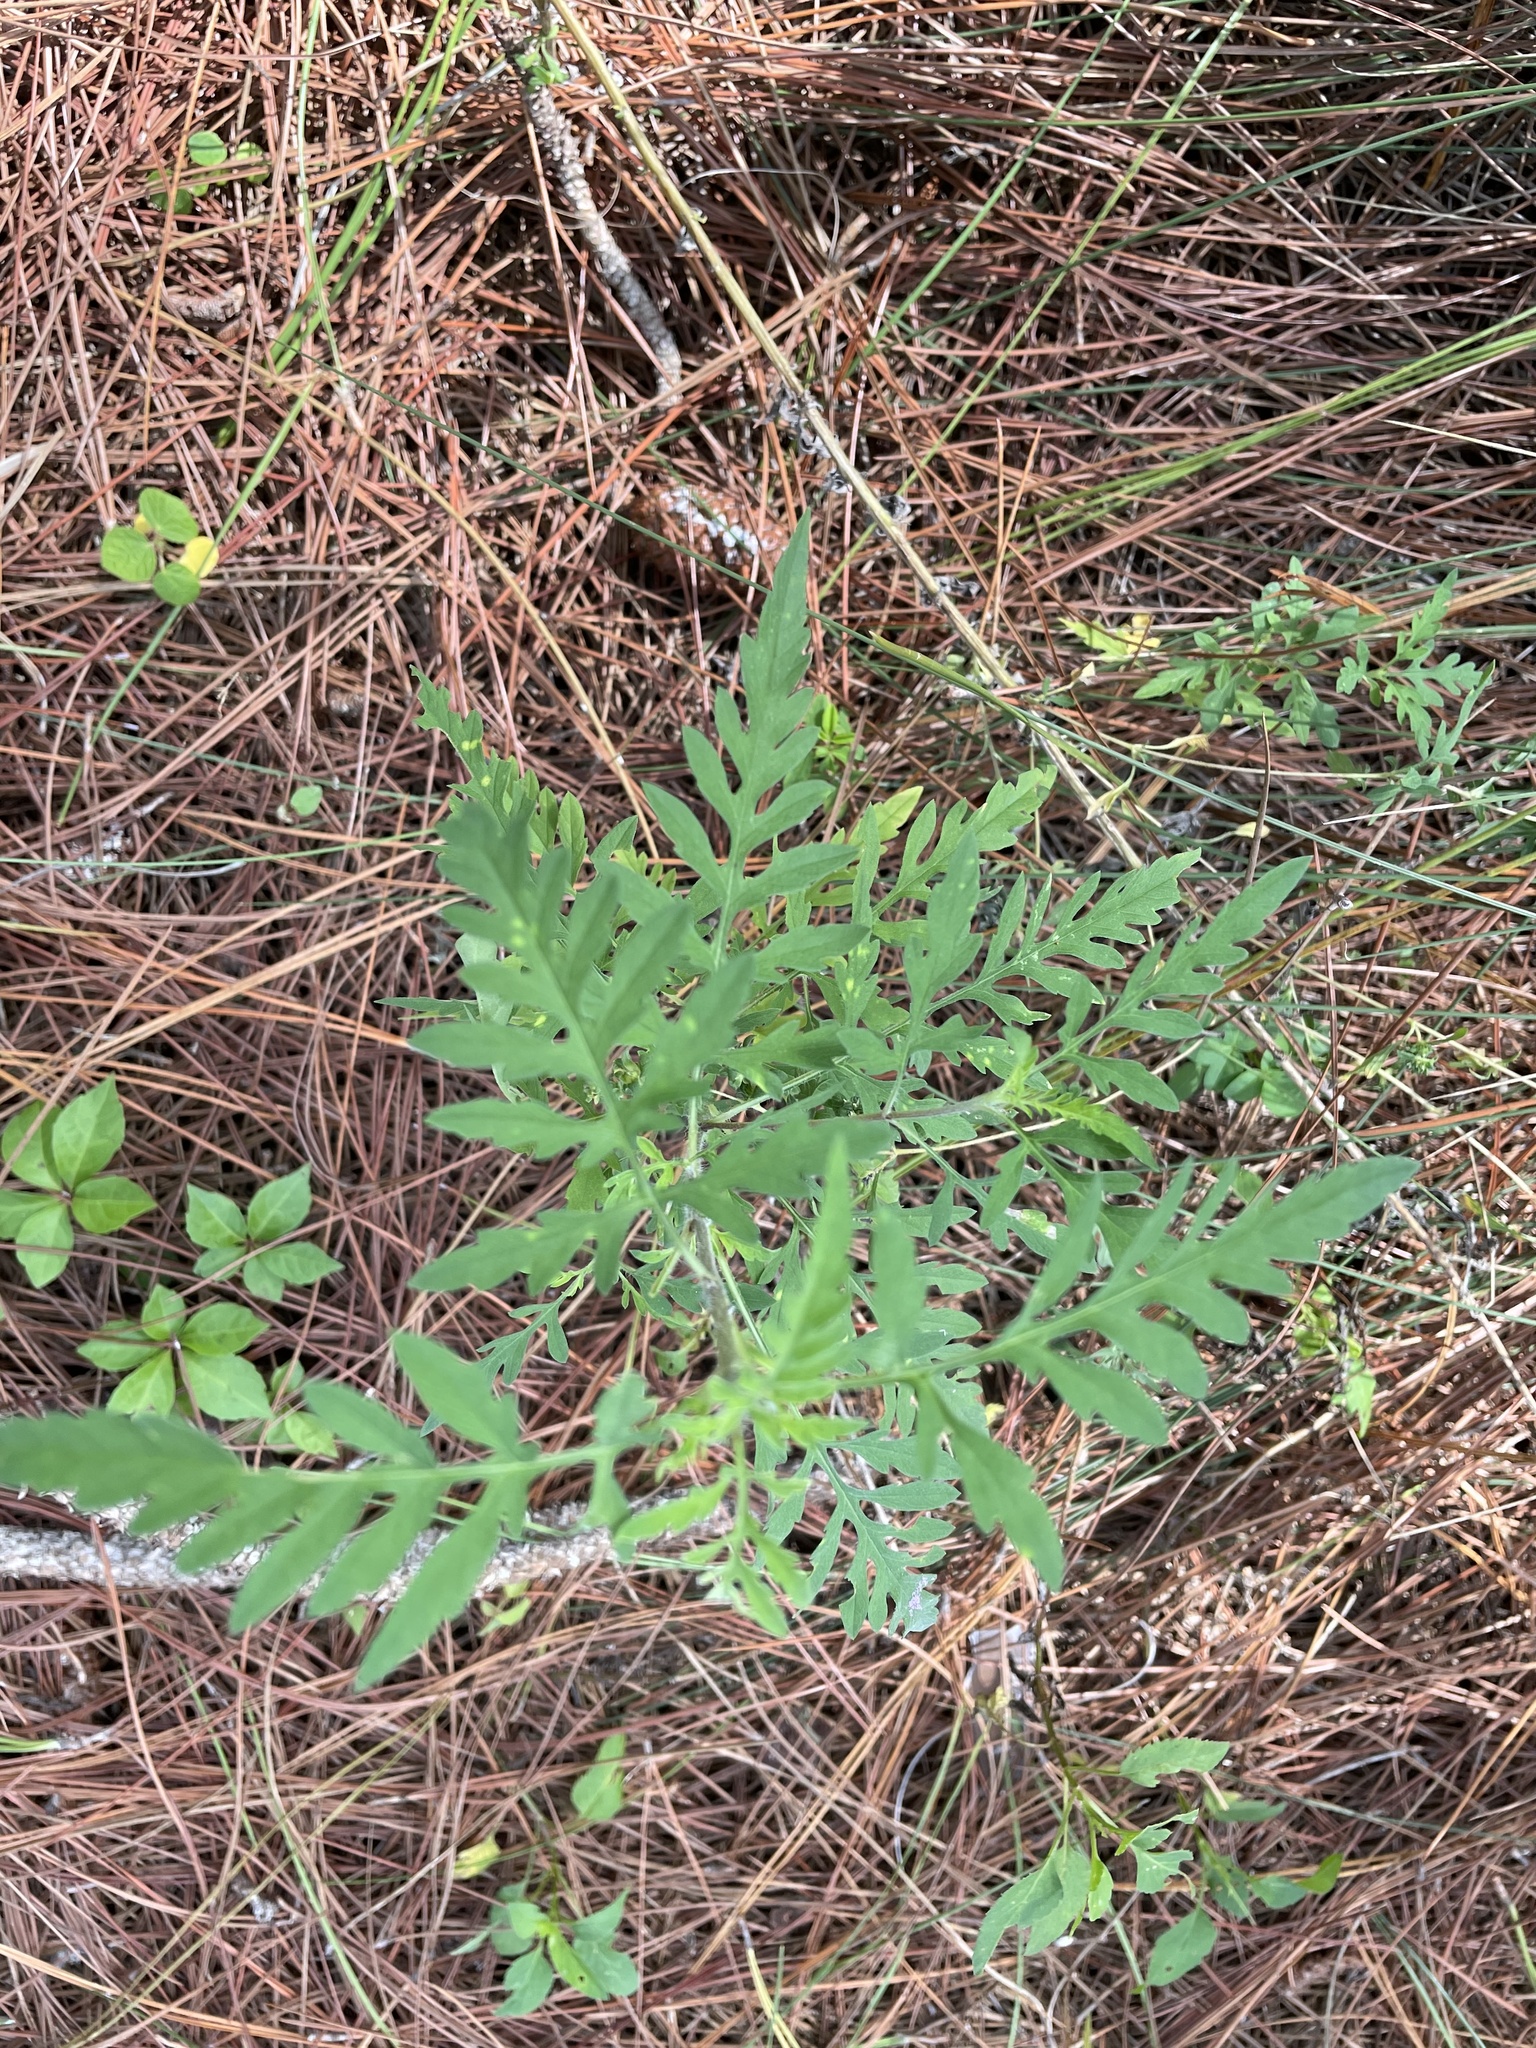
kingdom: Plantae
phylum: Tracheophyta
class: Magnoliopsida
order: Asterales
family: Asteraceae
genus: Ambrosia
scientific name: Ambrosia artemisiifolia
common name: Annual ragweed
